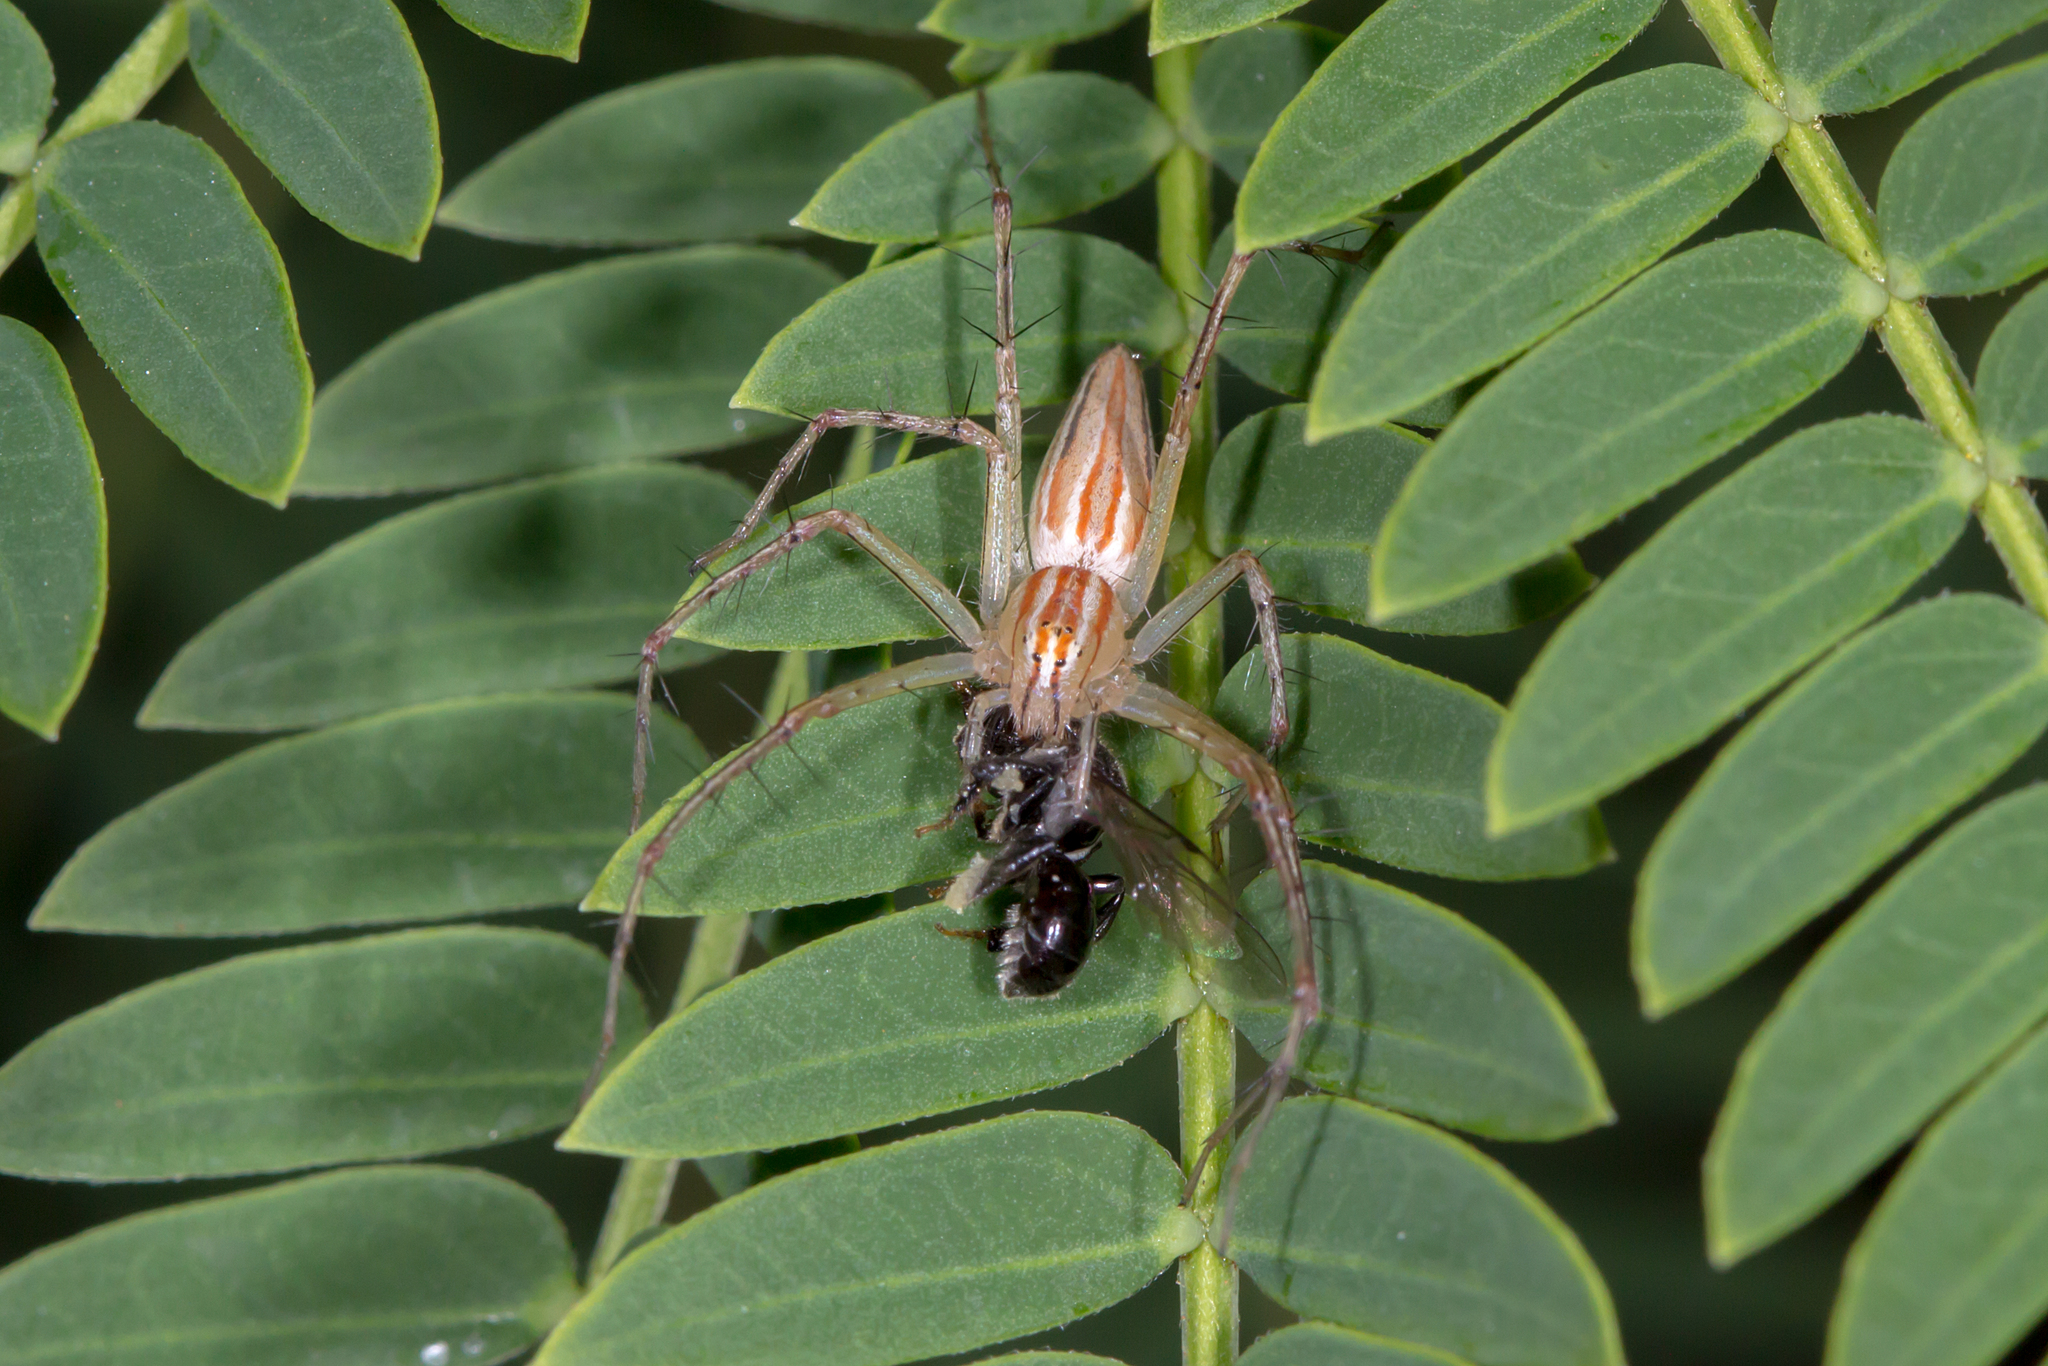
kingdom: Animalia
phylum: Arthropoda
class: Arachnida
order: Araneae
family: Oxyopidae
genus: Oxyopes
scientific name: Oxyopes macilentus
